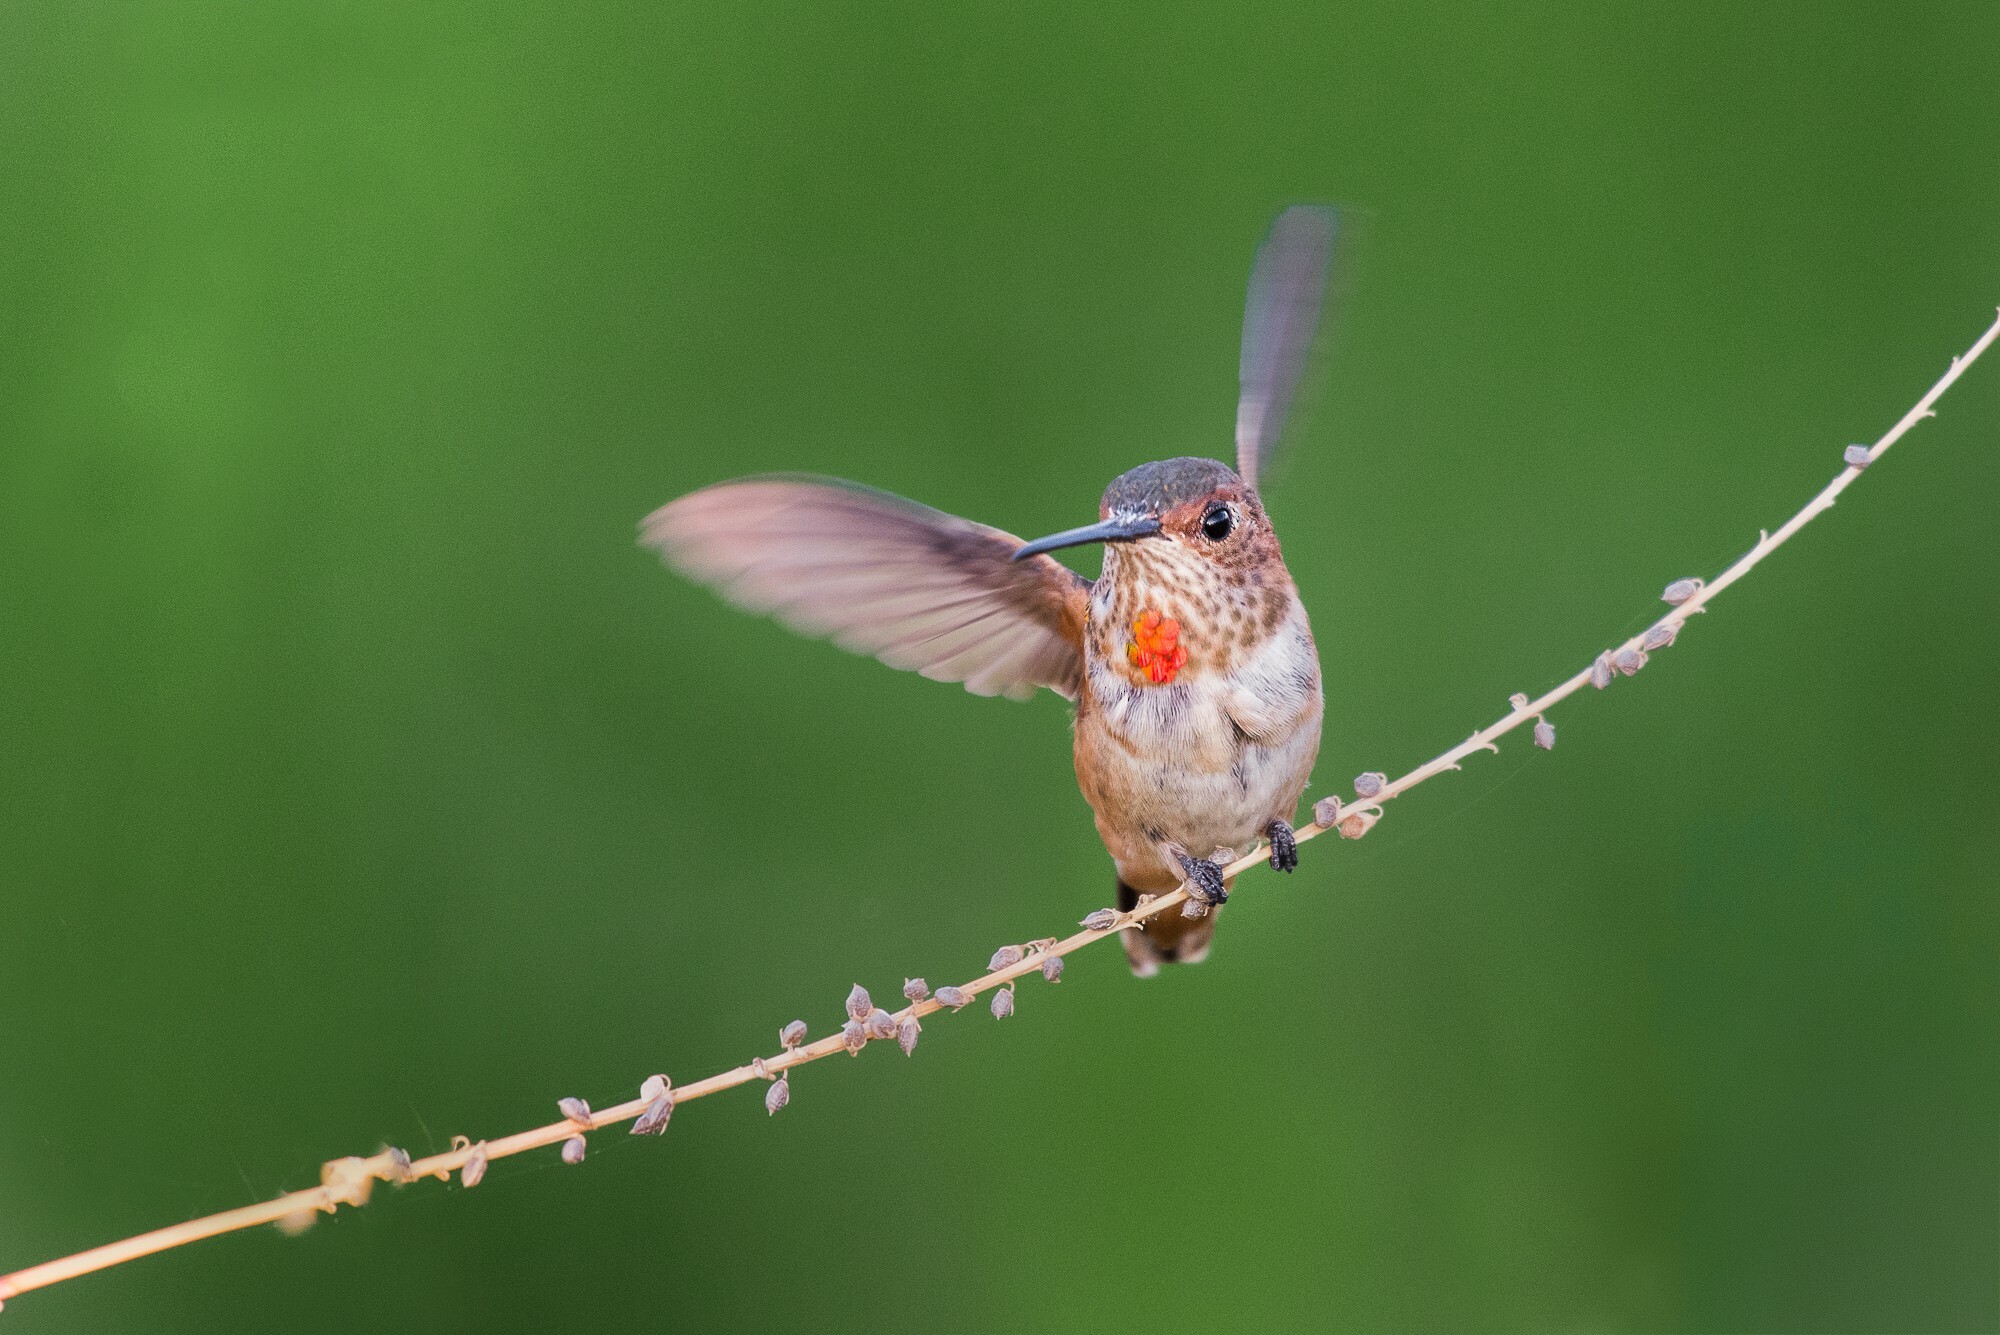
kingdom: Animalia
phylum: Chordata
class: Aves
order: Apodiformes
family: Trochilidae
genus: Selasphorus
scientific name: Selasphorus sasin
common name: Allen's hummingbird
